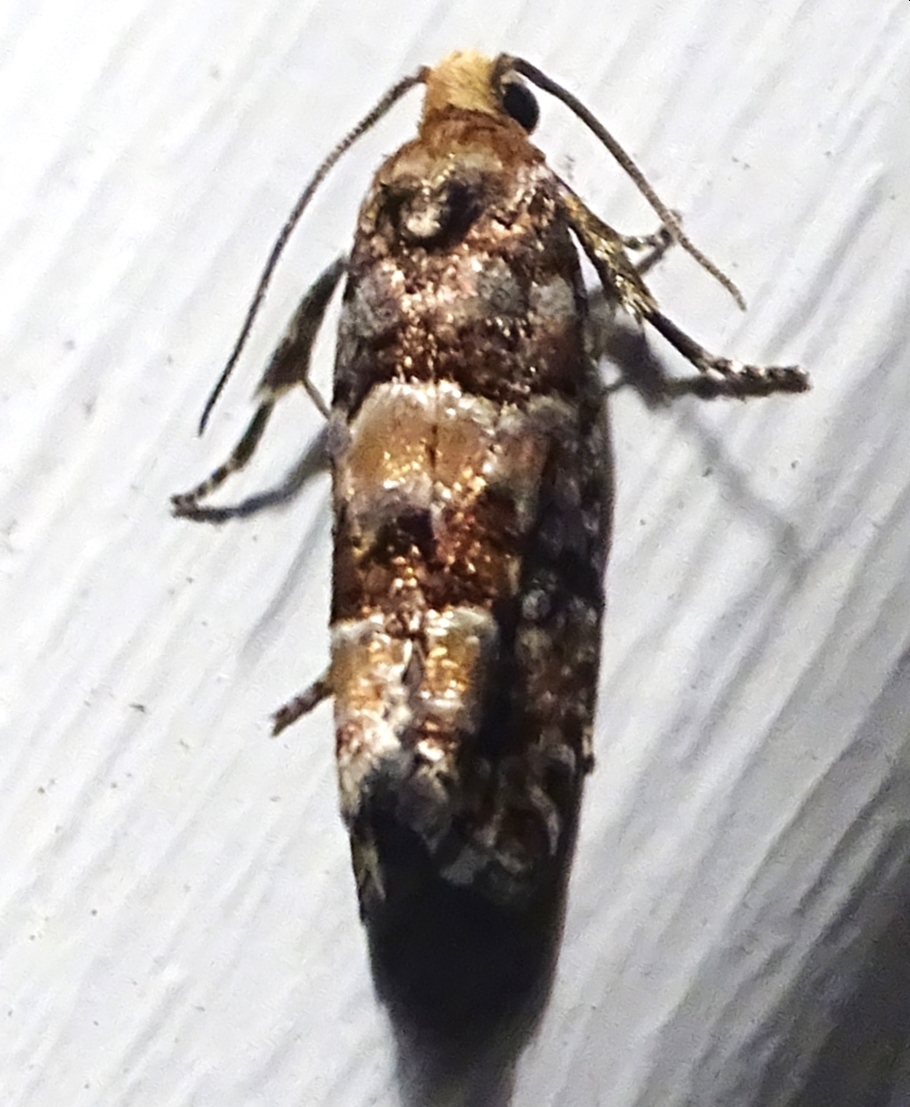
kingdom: Animalia
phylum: Arthropoda
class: Insecta
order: Lepidoptera
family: Tortricidae
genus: Eucopina
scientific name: Eucopina tocullionana
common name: White pinecone borer moth
